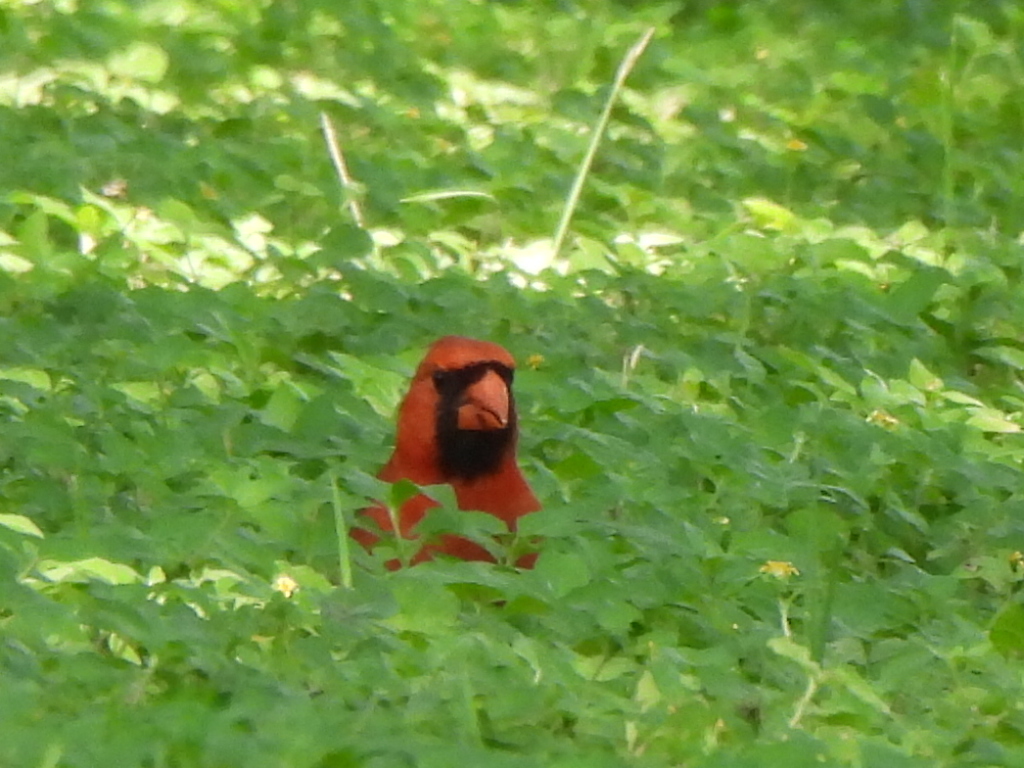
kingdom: Animalia
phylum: Chordata
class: Aves
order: Passeriformes
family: Cardinalidae
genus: Cardinalis
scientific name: Cardinalis cardinalis
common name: Northern cardinal
